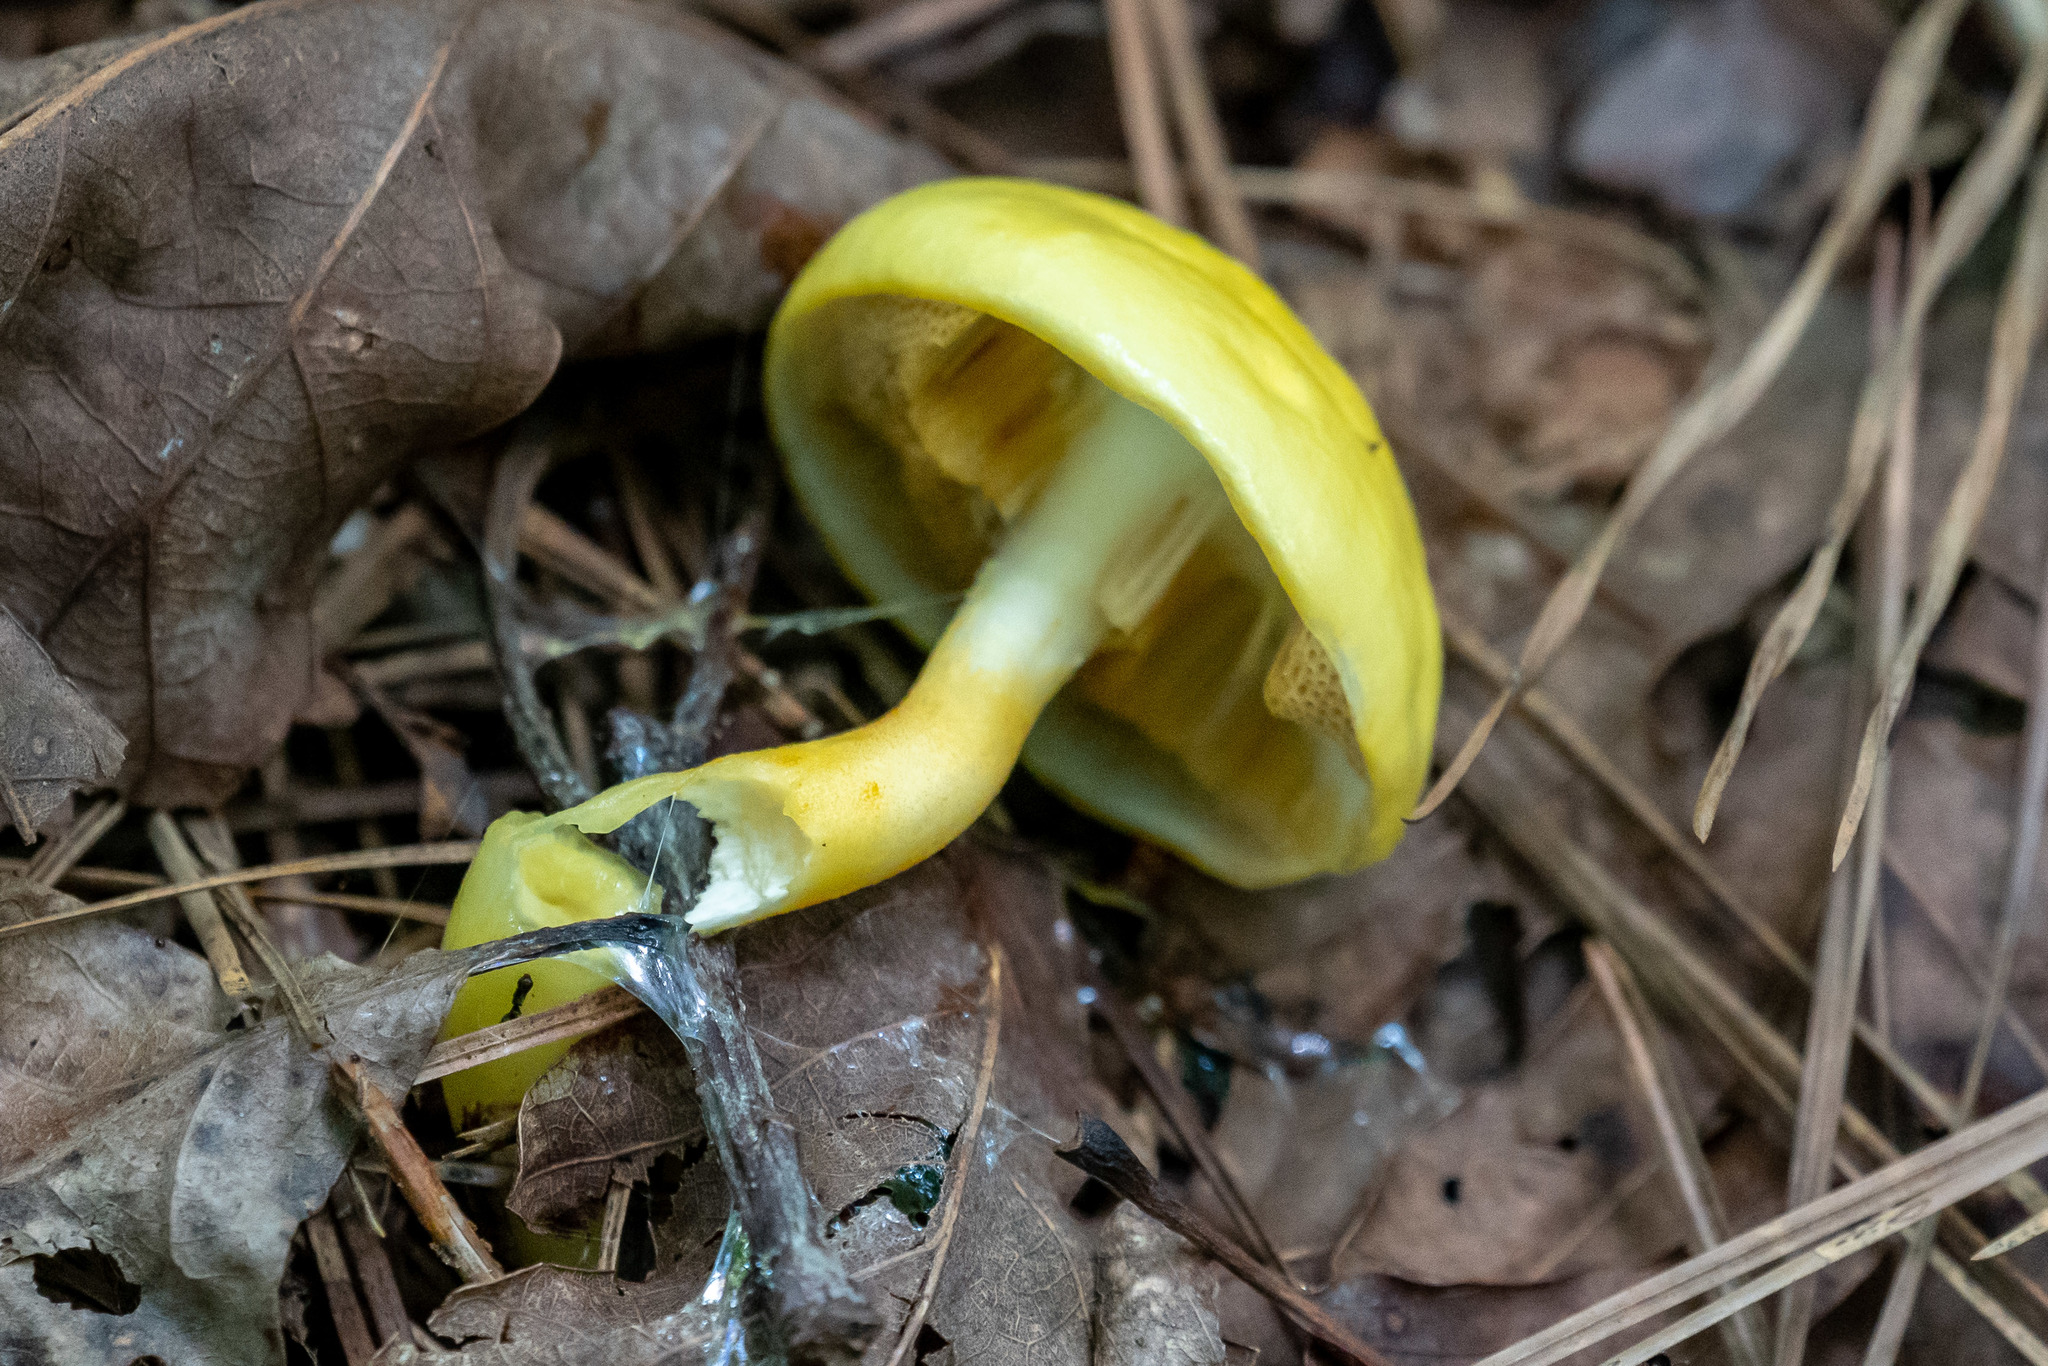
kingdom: Fungi
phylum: Basidiomycota
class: Agaricomycetes
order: Boletales
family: Boletaceae
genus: Pulveroboletus
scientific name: Pulveroboletus curtisii
